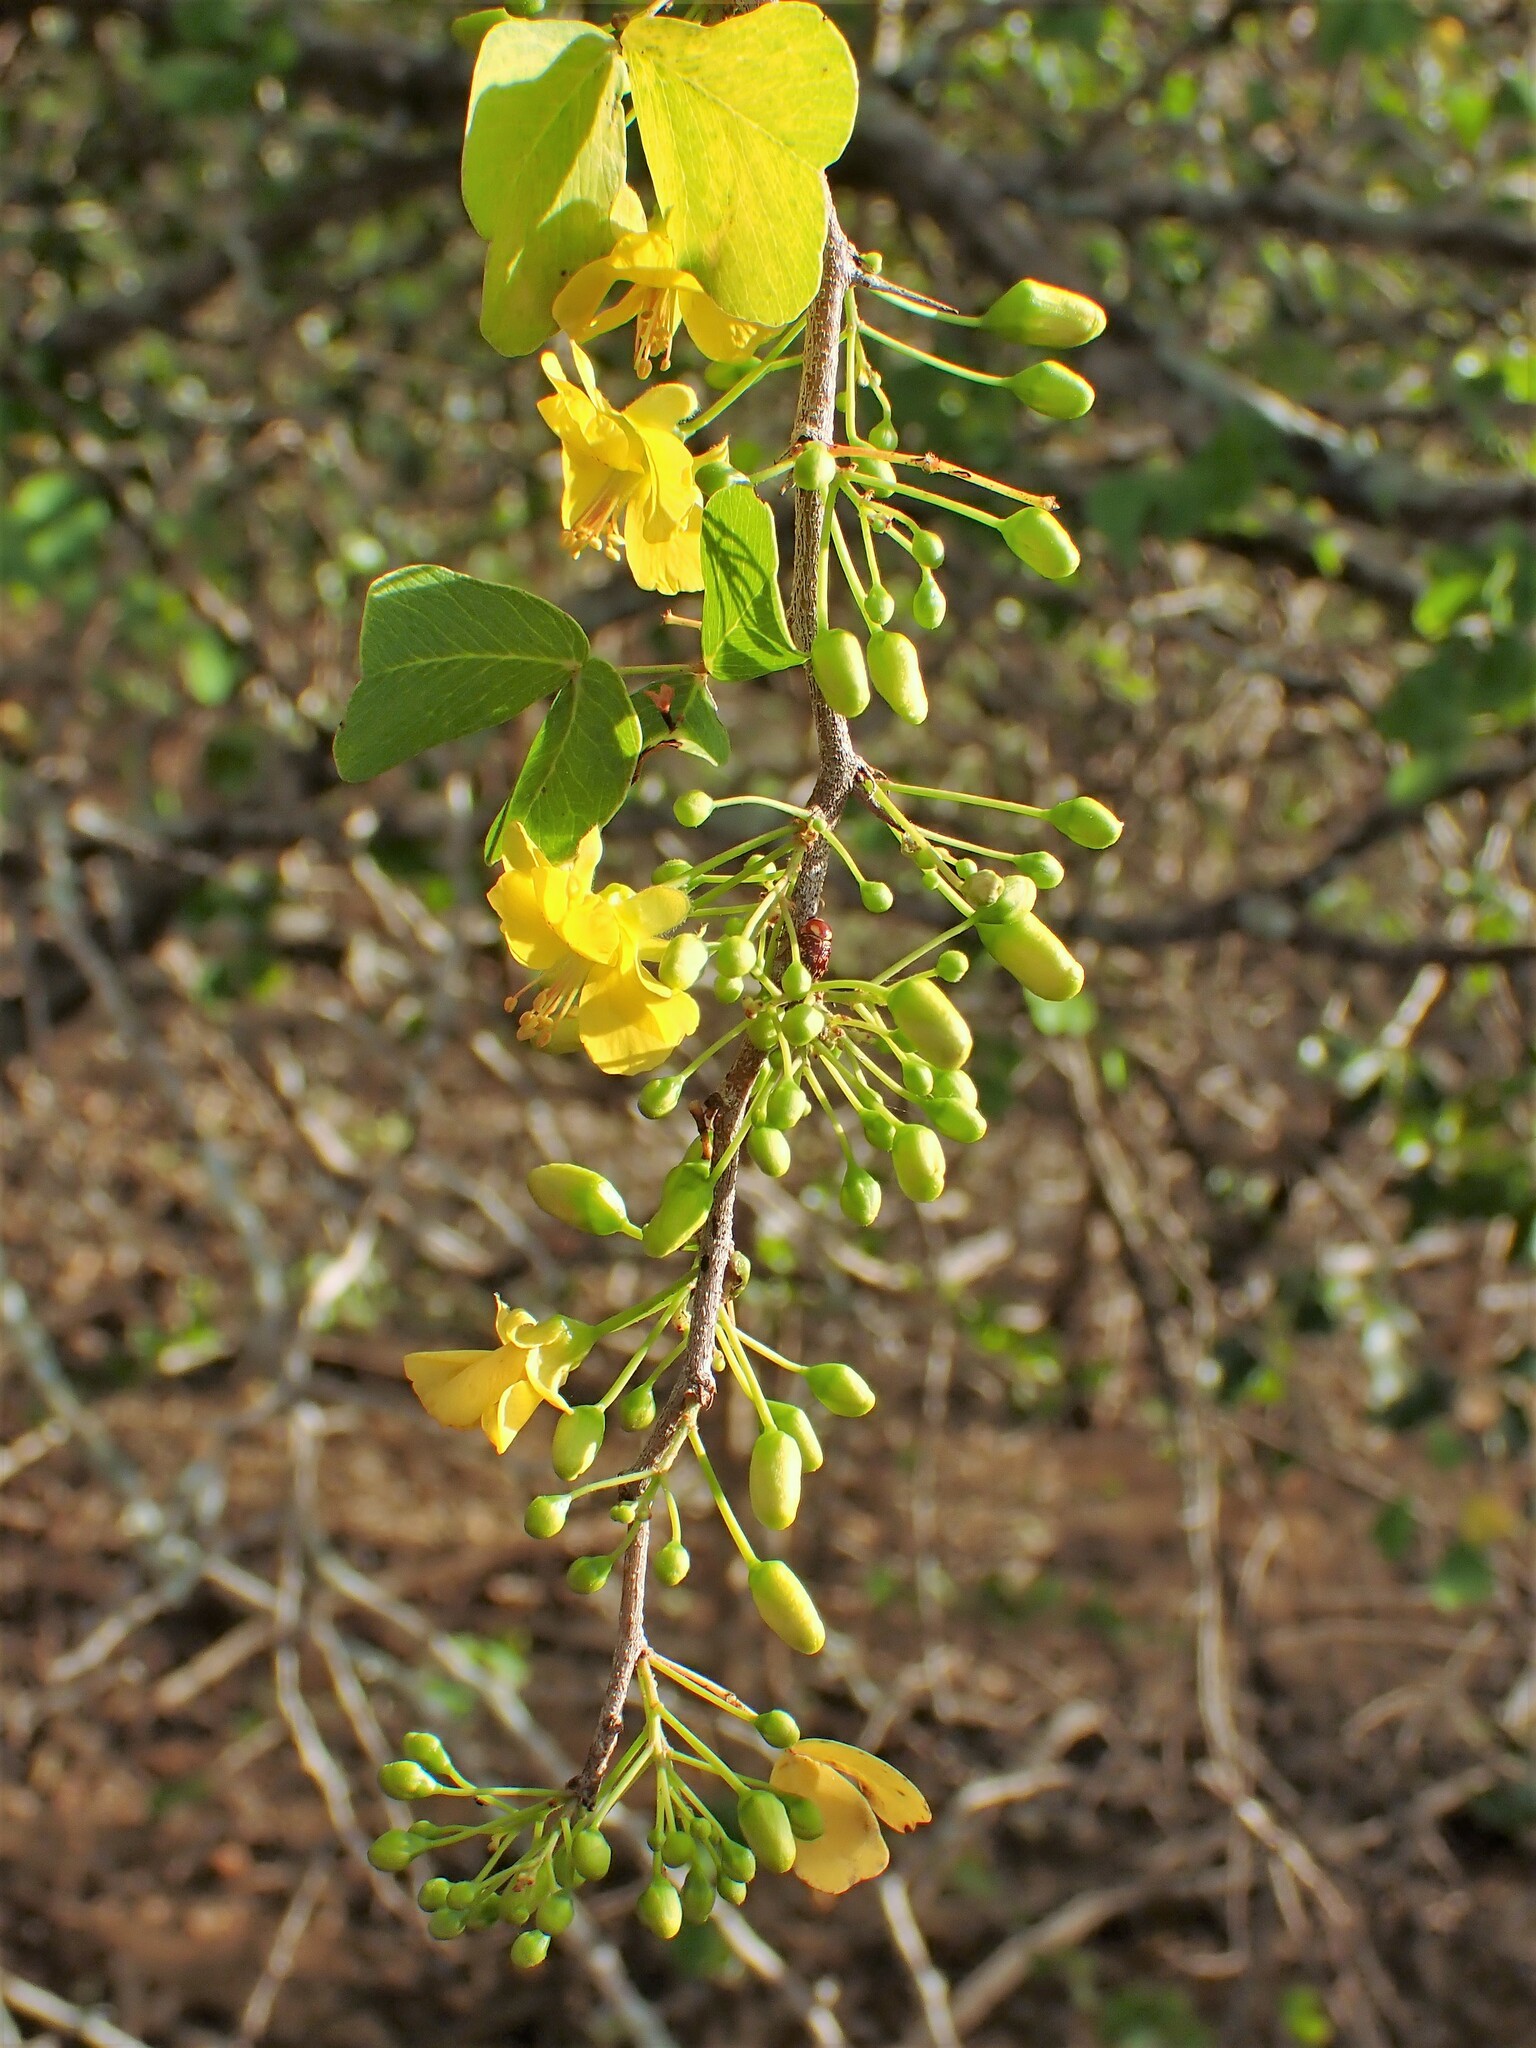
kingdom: Plantae
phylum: Tracheophyta
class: Magnoliopsida
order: Fabales
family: Fabaceae
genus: Haematoxylum
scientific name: Haematoxylum brasiletto
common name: Peachwood
